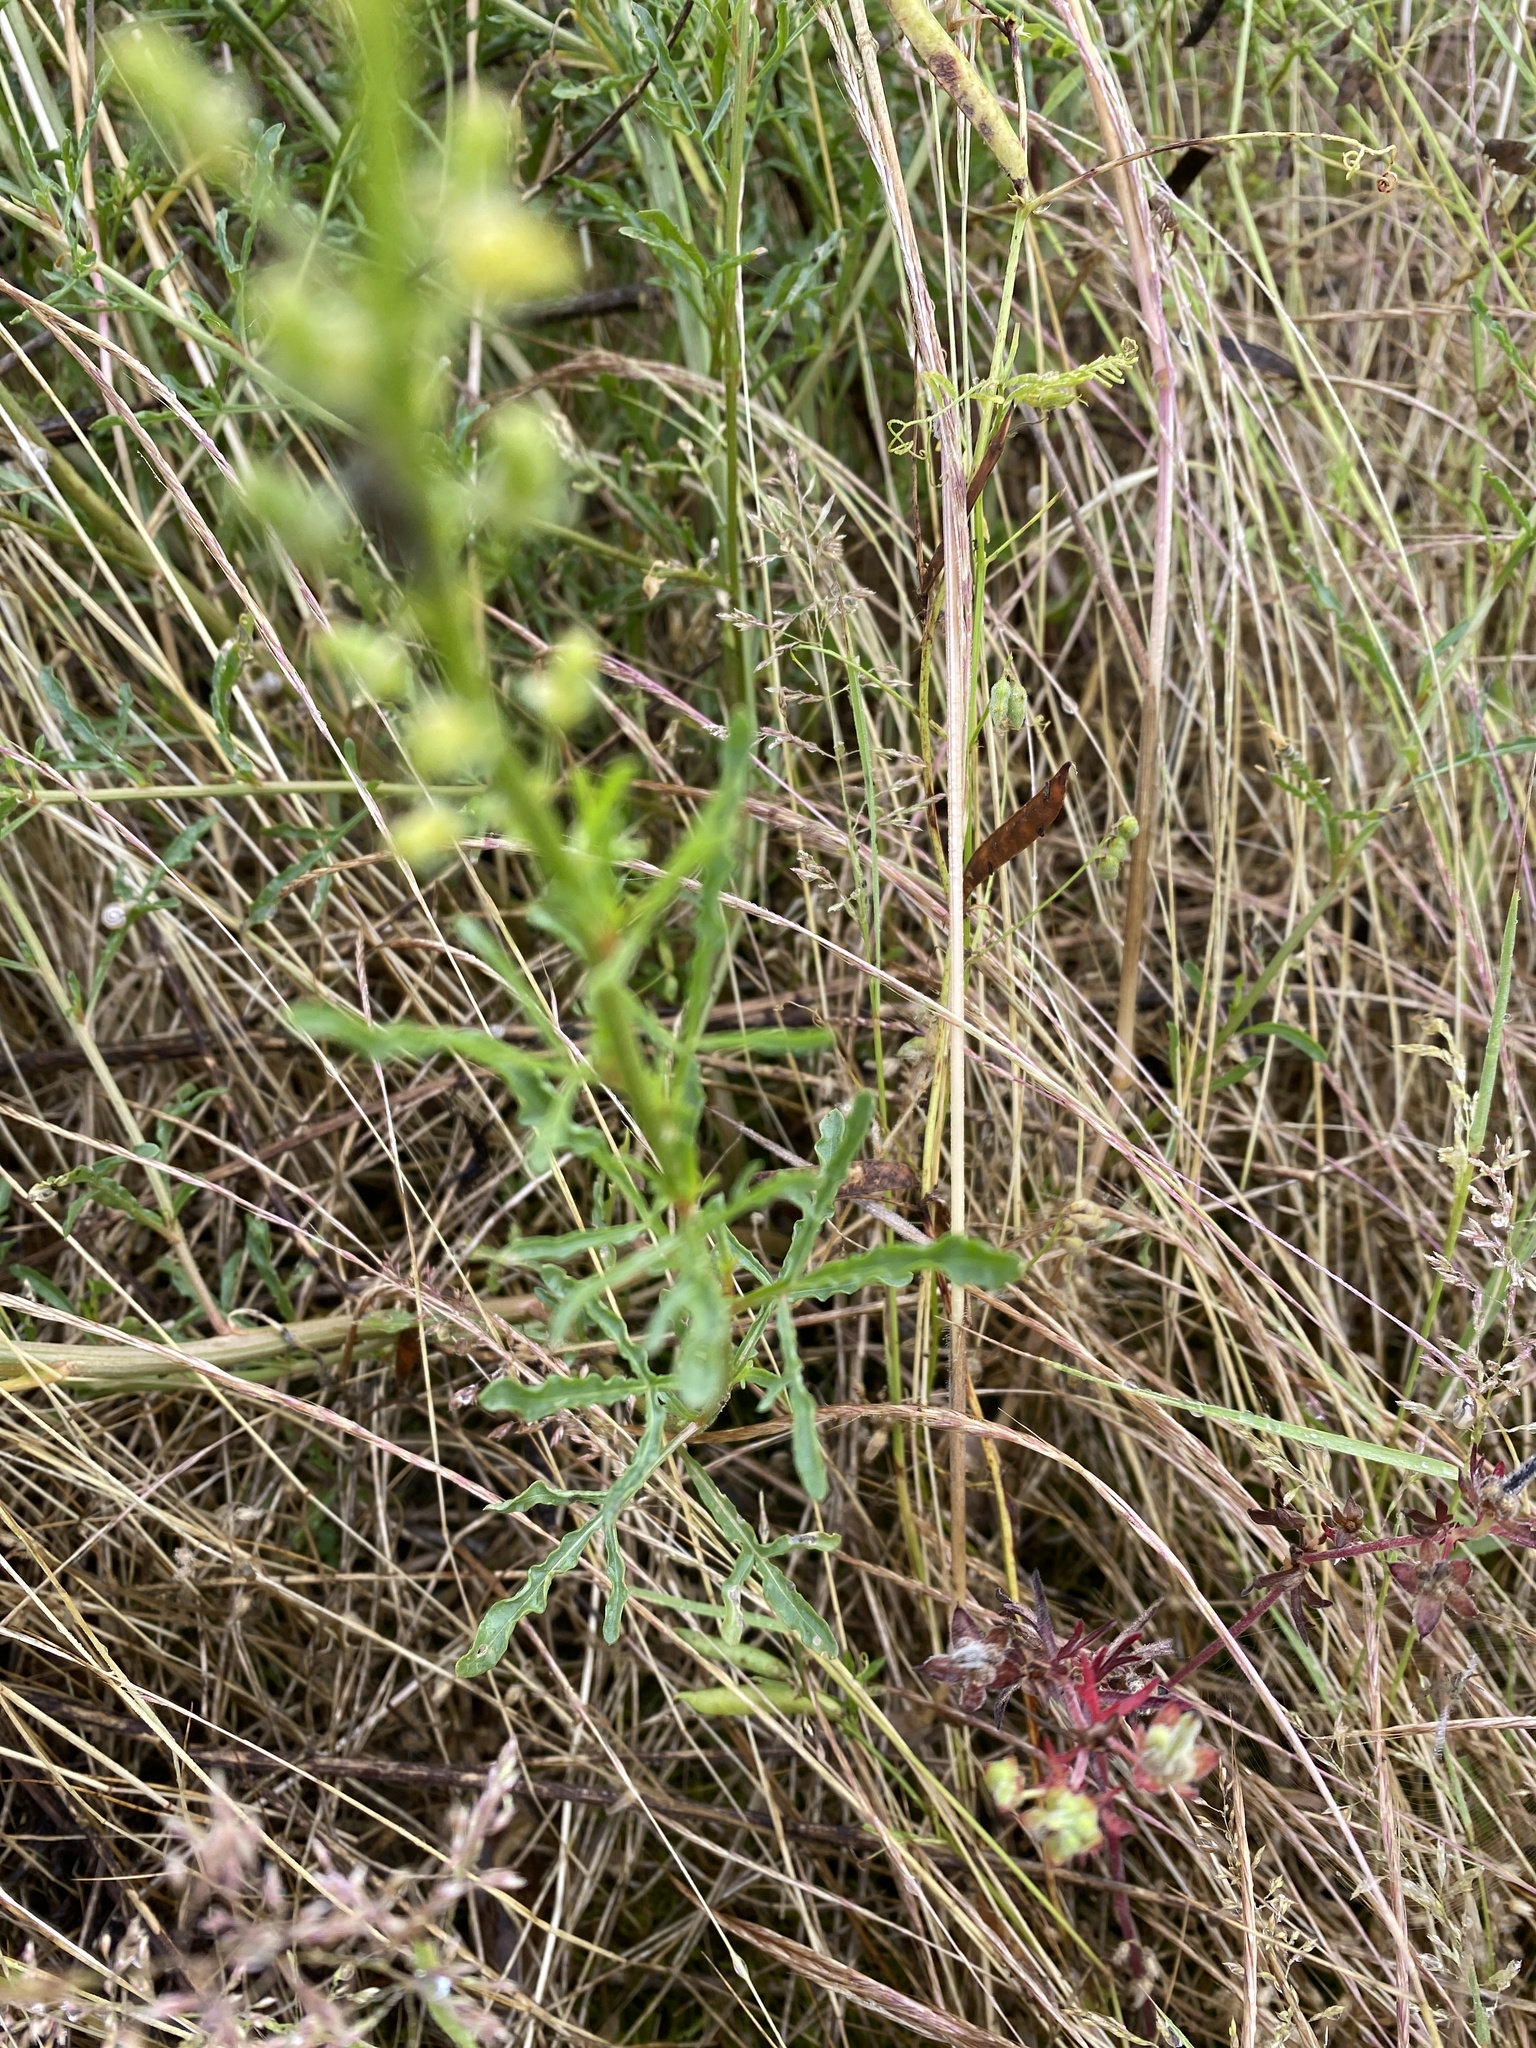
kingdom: Plantae
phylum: Tracheophyta
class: Magnoliopsida
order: Brassicales
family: Resedaceae
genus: Reseda
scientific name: Reseda lutea
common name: Wild mignonette
